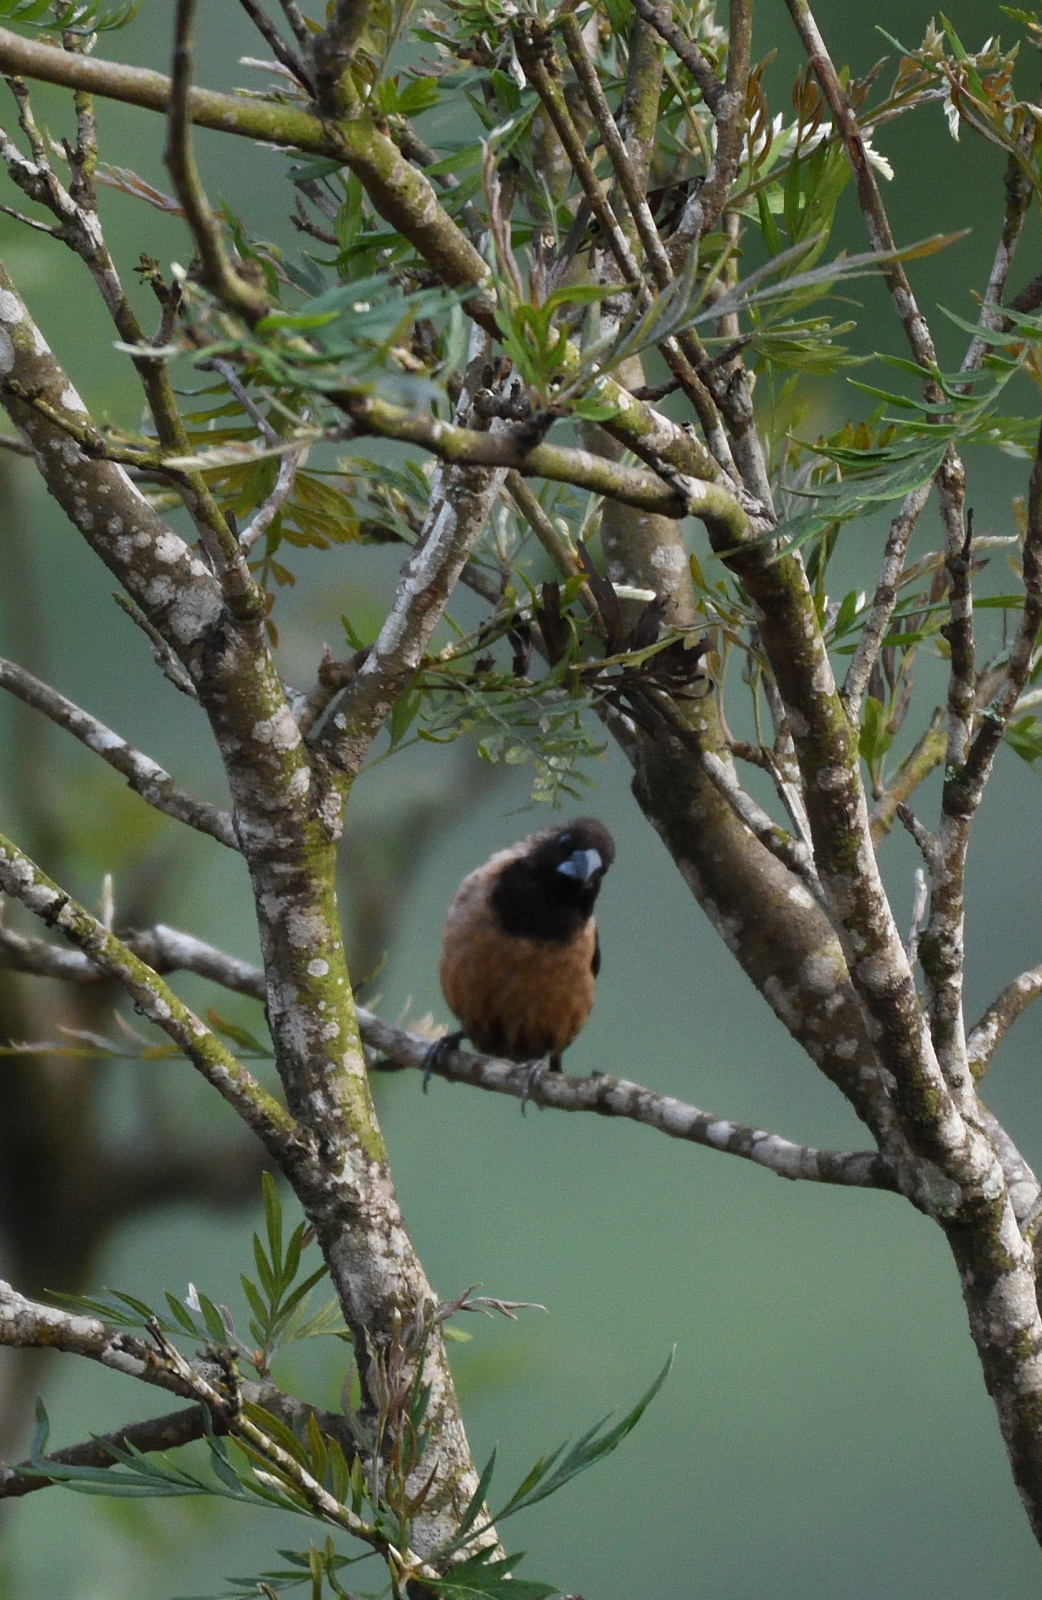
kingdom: Animalia
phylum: Chordata
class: Aves
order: Passeriformes
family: Estrildidae
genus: Lonchura
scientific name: Lonchura kelaarti
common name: Black-throated munia
